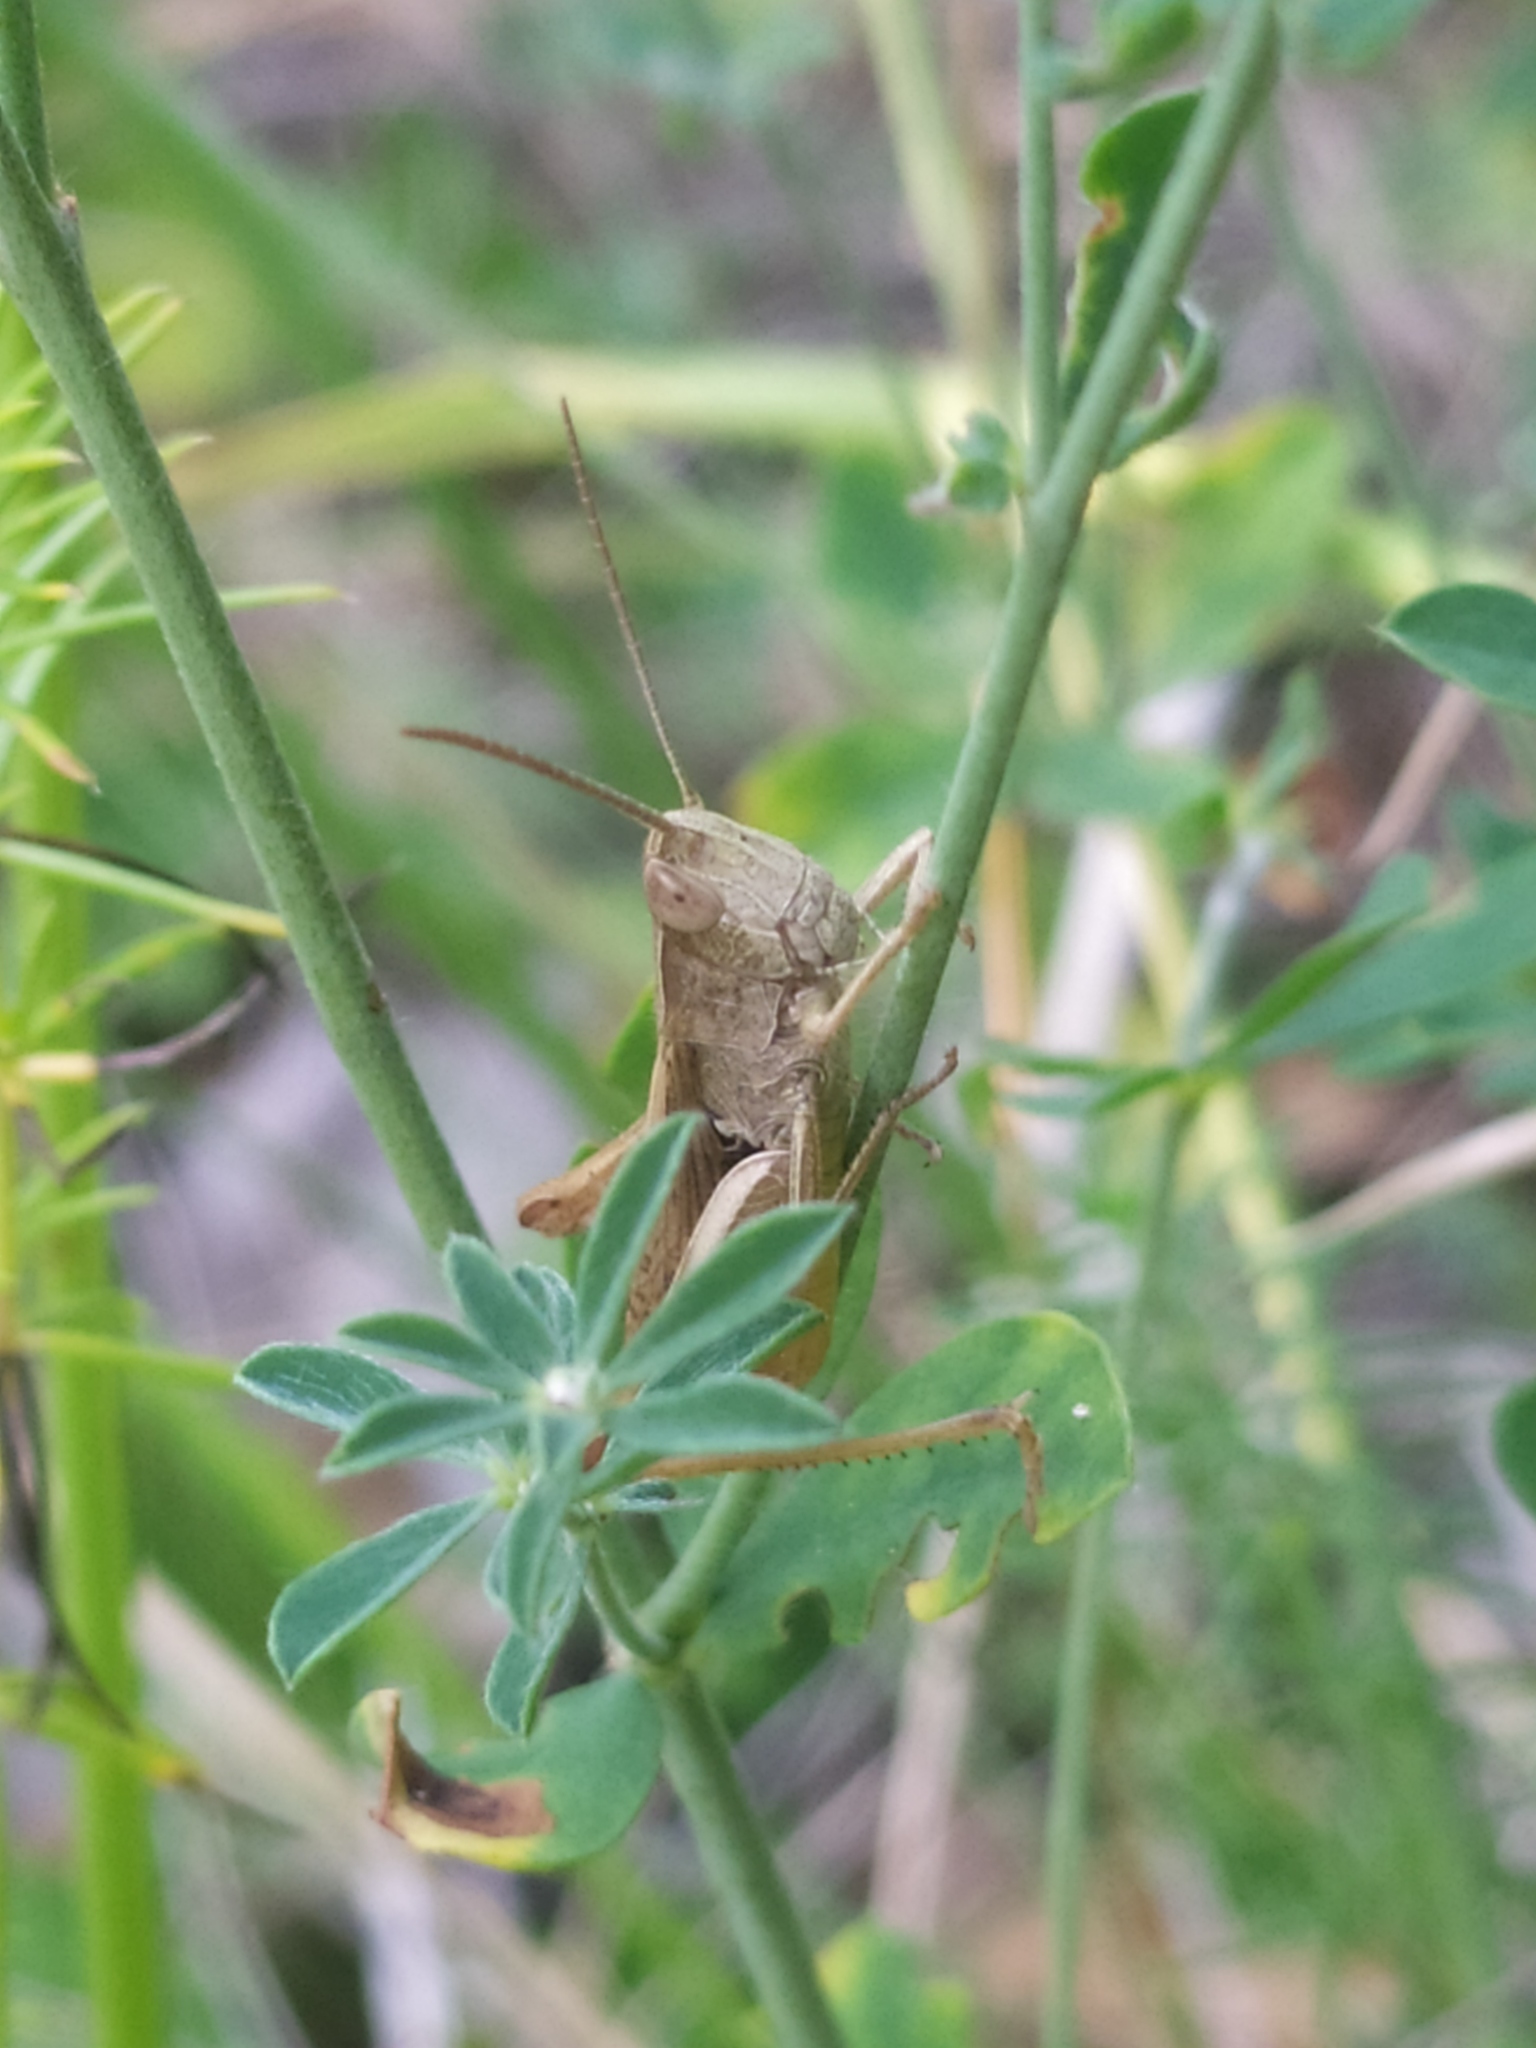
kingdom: Animalia
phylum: Arthropoda
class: Insecta
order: Orthoptera
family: Acrididae
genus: Chorthippus
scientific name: Chorthippus dorsatus
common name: Steppe grasshopper
